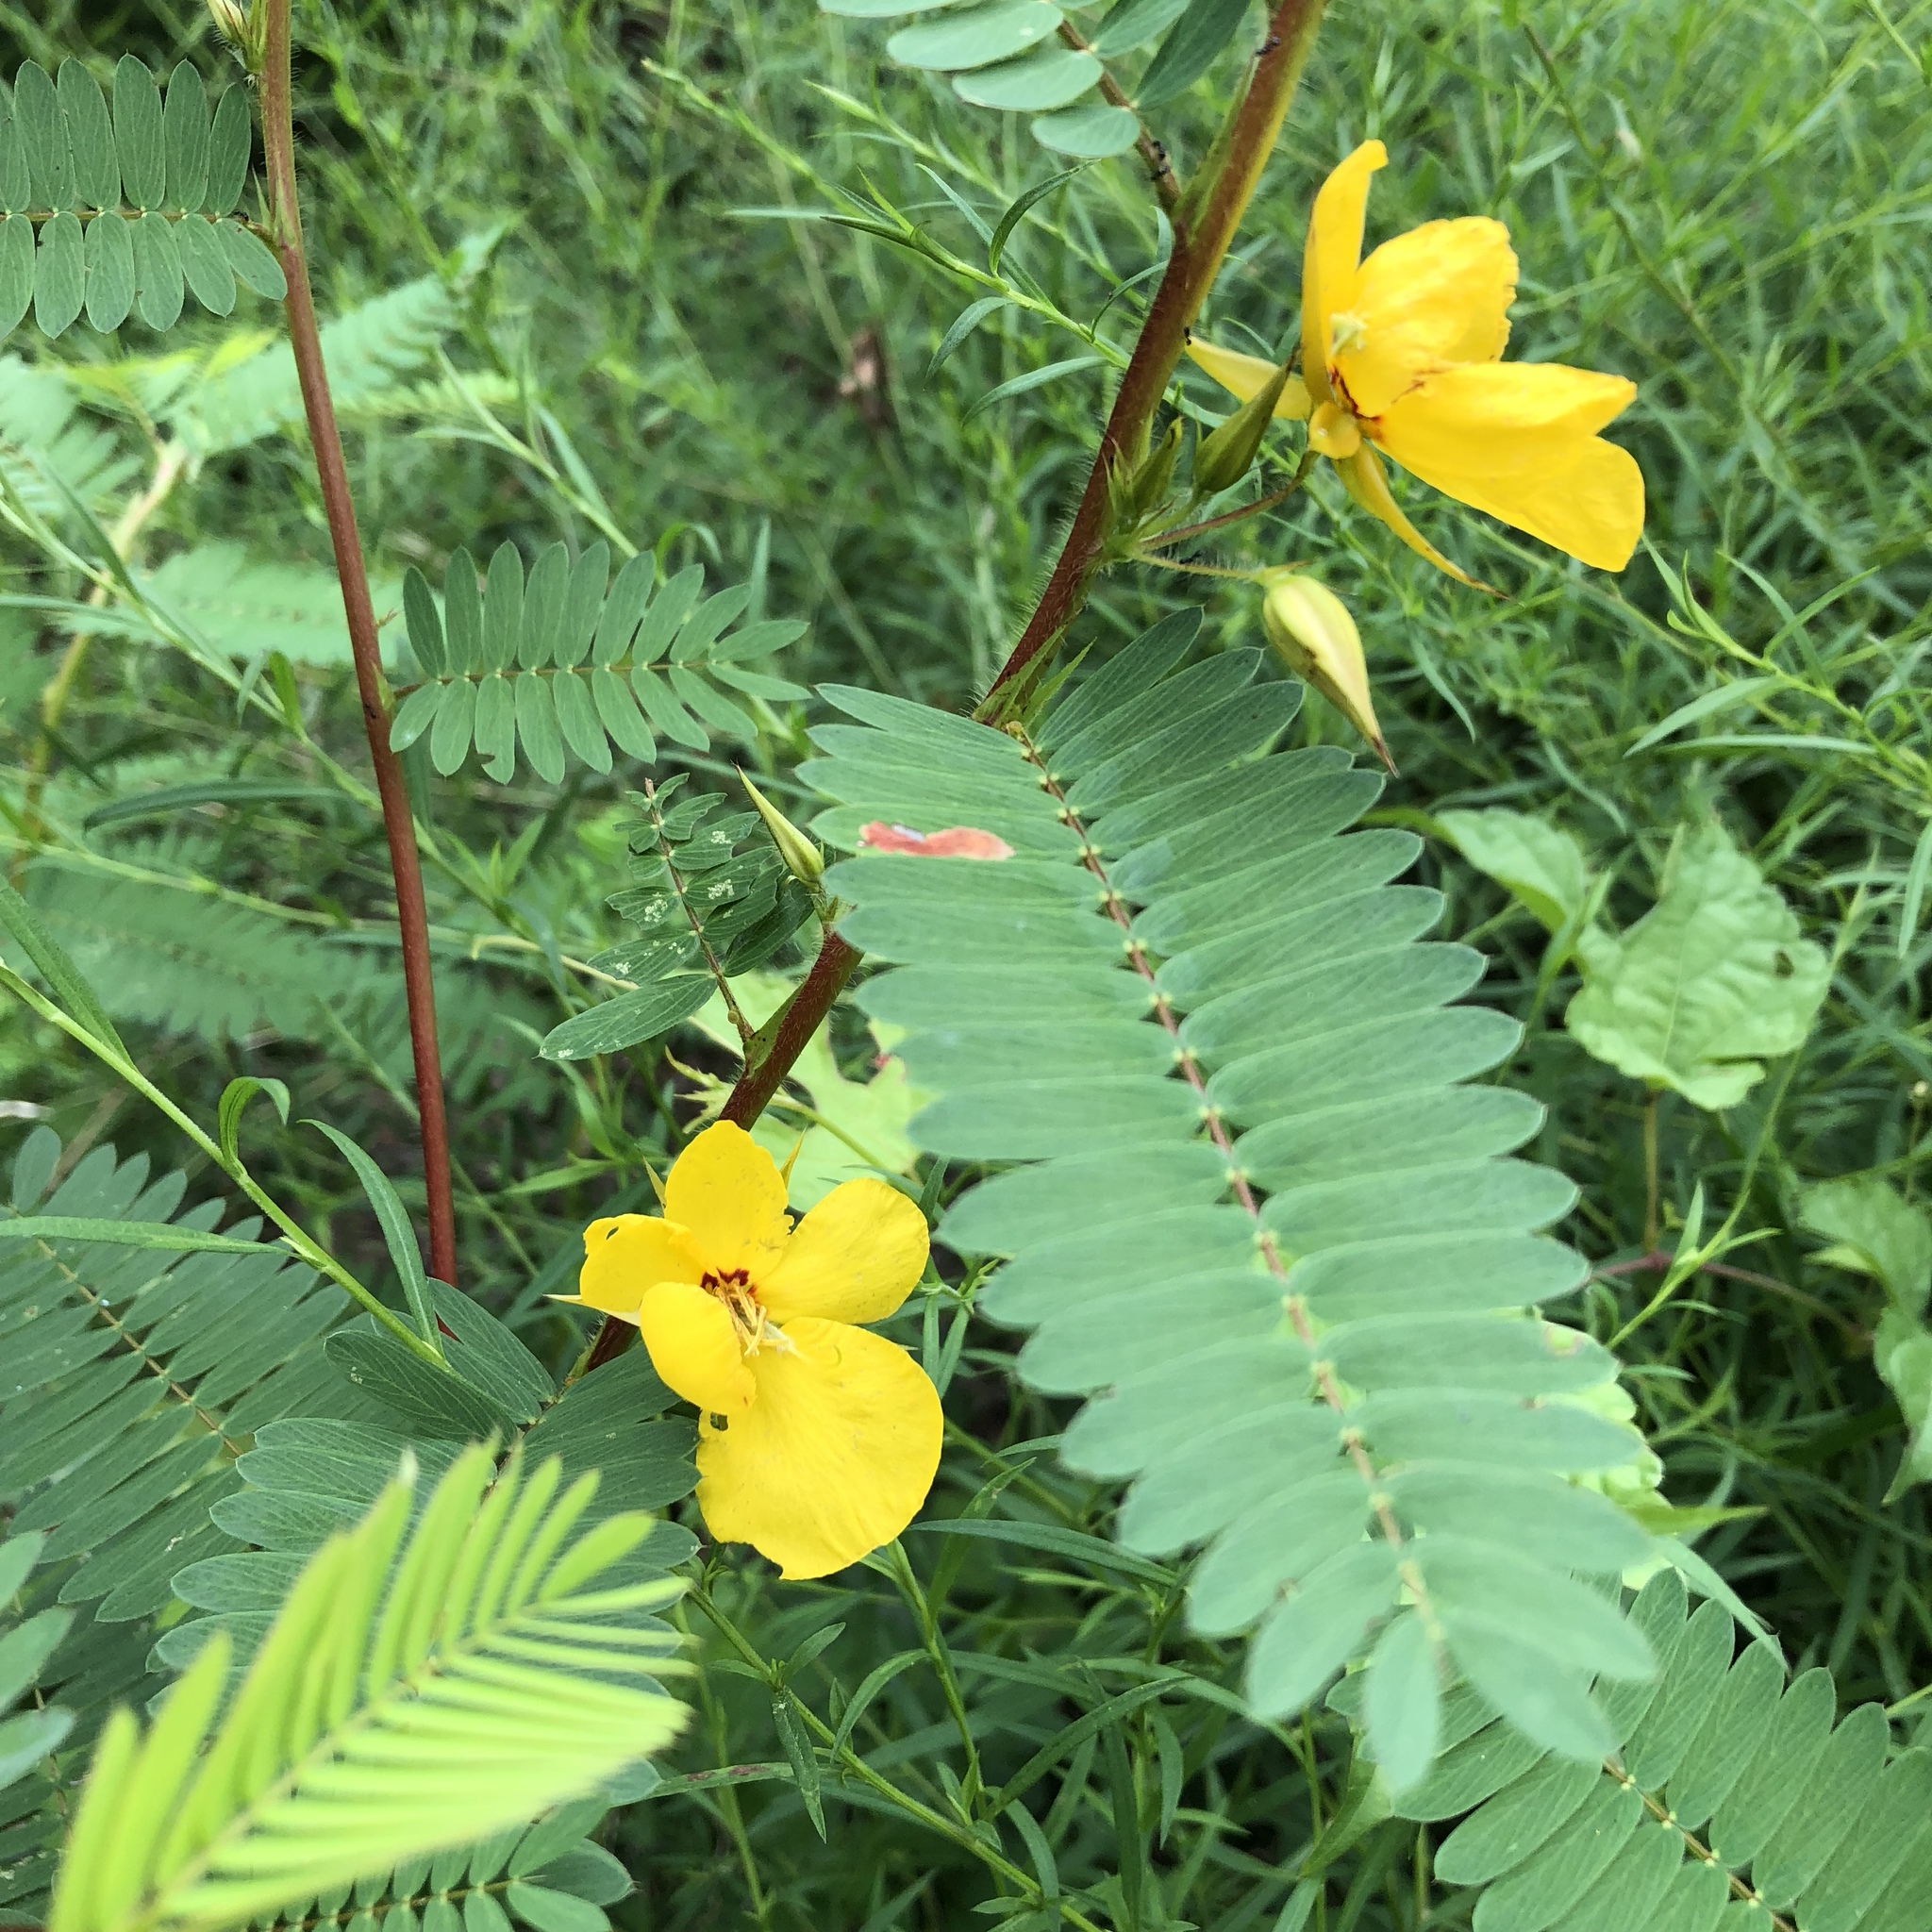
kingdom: Plantae
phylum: Tracheophyta
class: Magnoliopsida
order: Fabales
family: Fabaceae
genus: Chamaecrista
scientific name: Chamaecrista fasciculata
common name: Golden cassia
